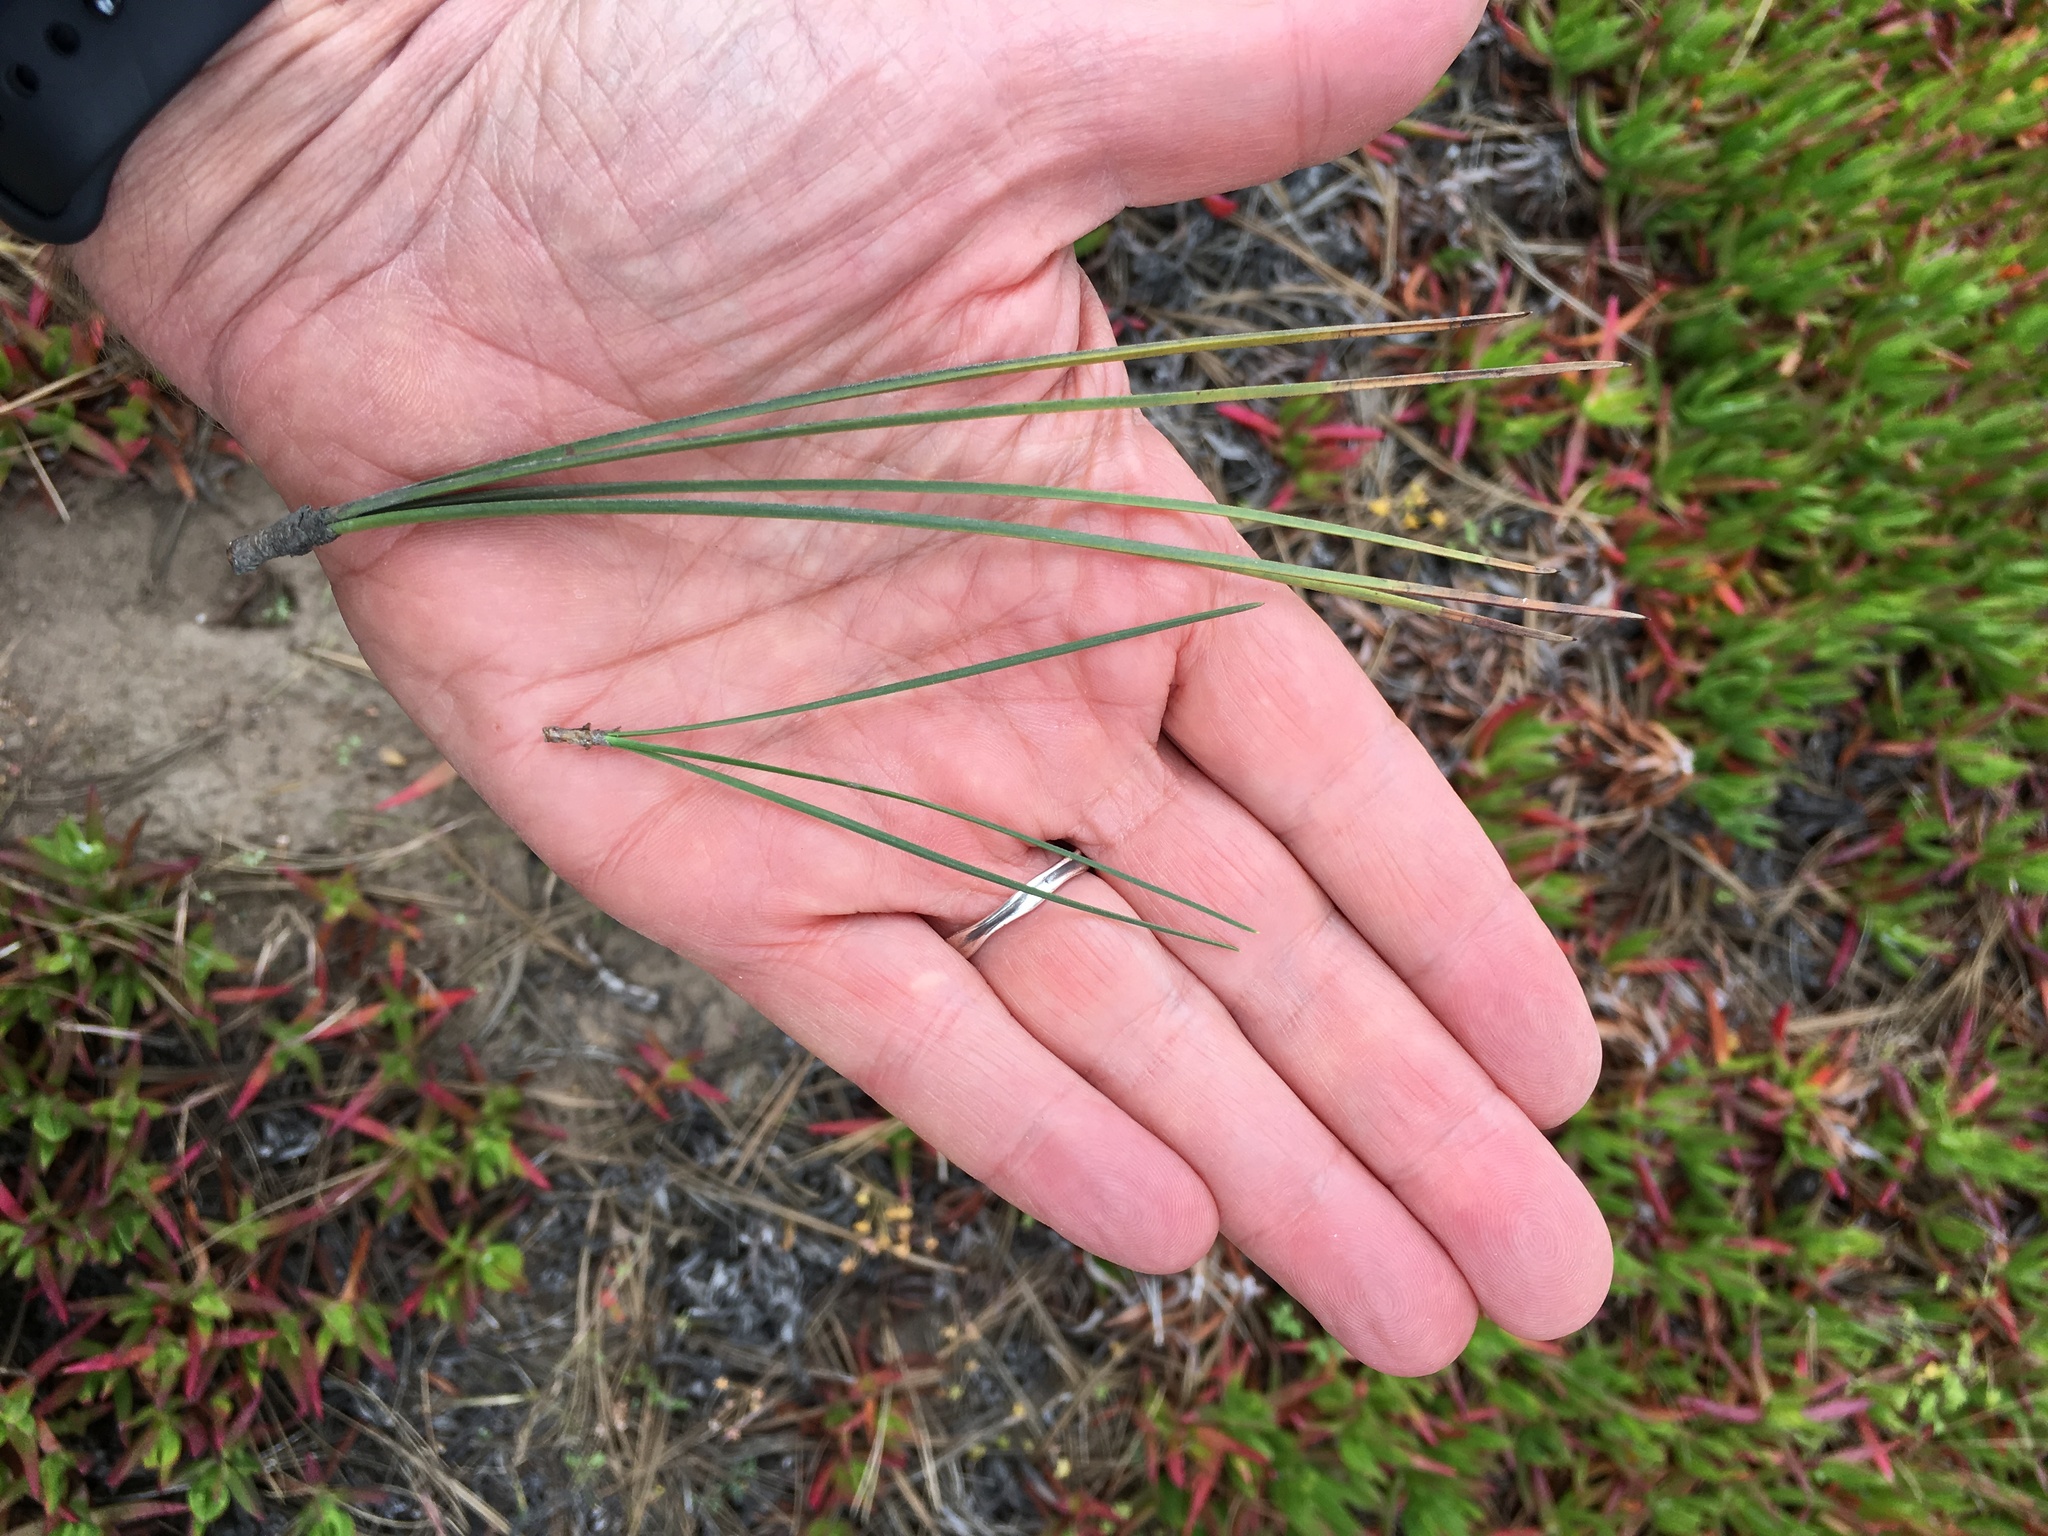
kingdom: Plantae
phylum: Tracheophyta
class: Pinopsida
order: Pinales
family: Pinaceae
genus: Pinus
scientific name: Pinus torreyana
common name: Torrey pine
